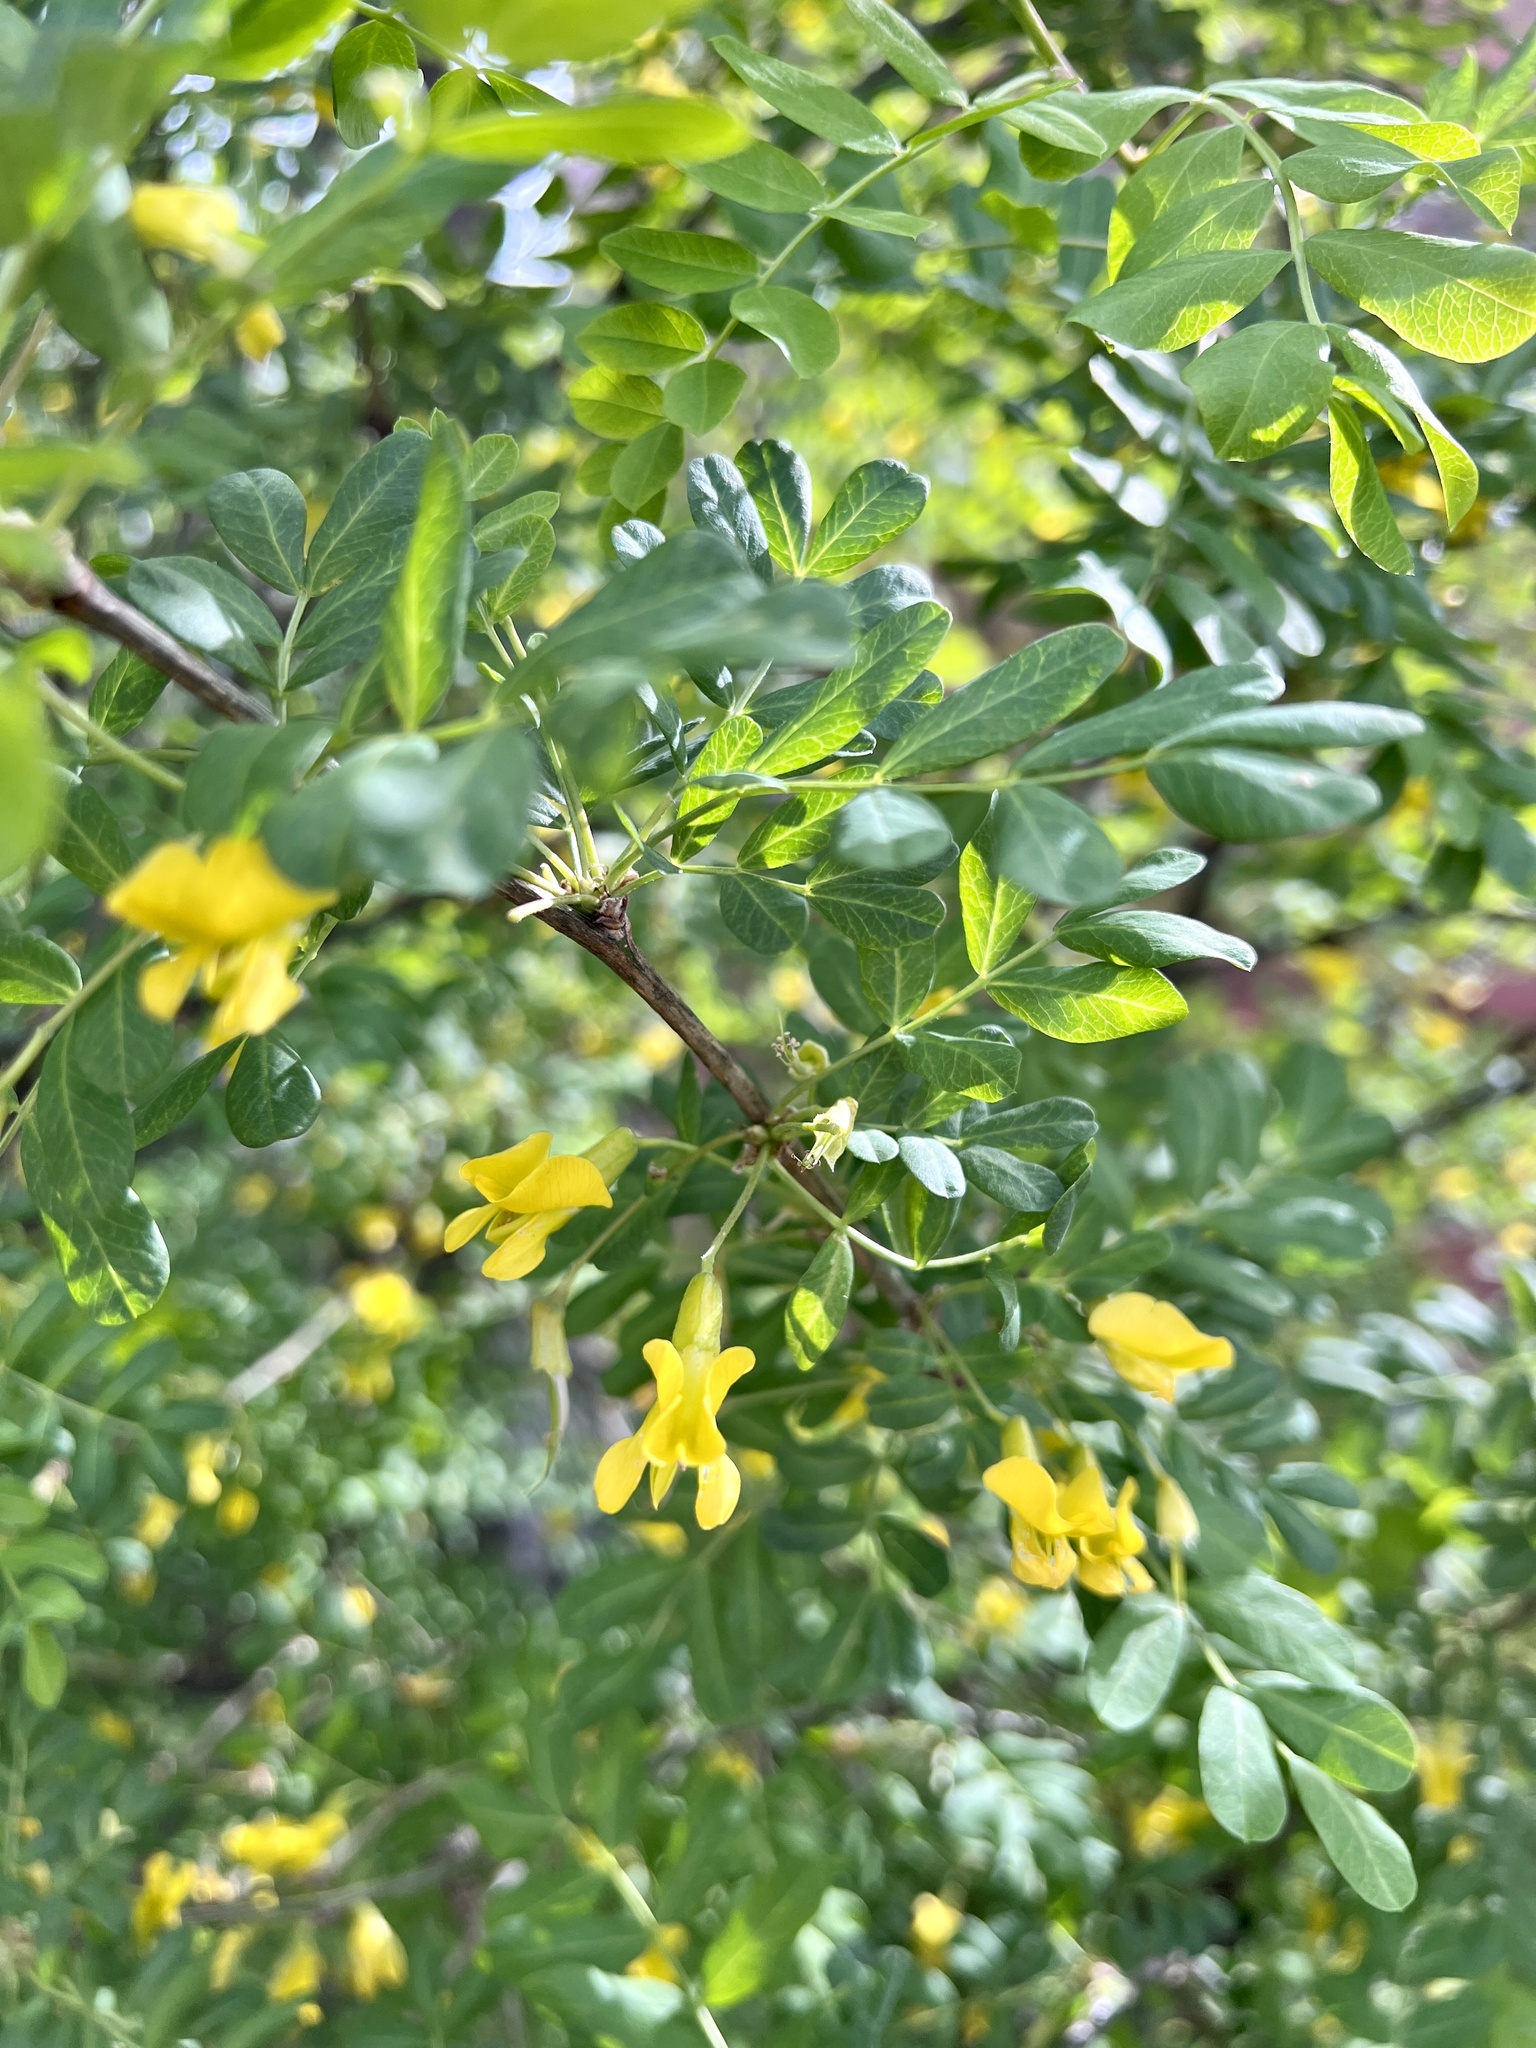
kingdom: Plantae
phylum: Tracheophyta
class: Magnoliopsida
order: Fabales
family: Fabaceae
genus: Caragana
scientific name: Caragana arborescens
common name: Siberian peashrub
